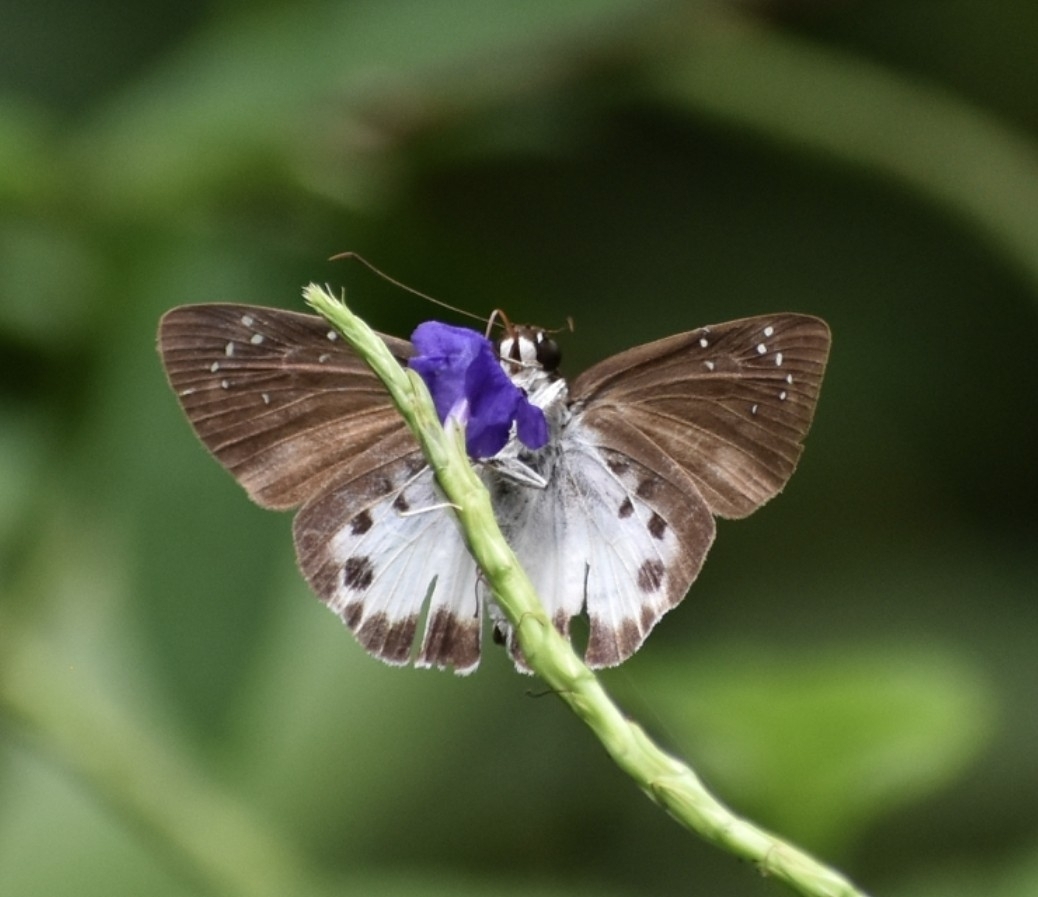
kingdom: Animalia
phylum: Arthropoda
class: Insecta
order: Lepidoptera
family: Hesperiidae
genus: Tagiades
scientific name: Tagiades litigiosa
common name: Water snow flat
